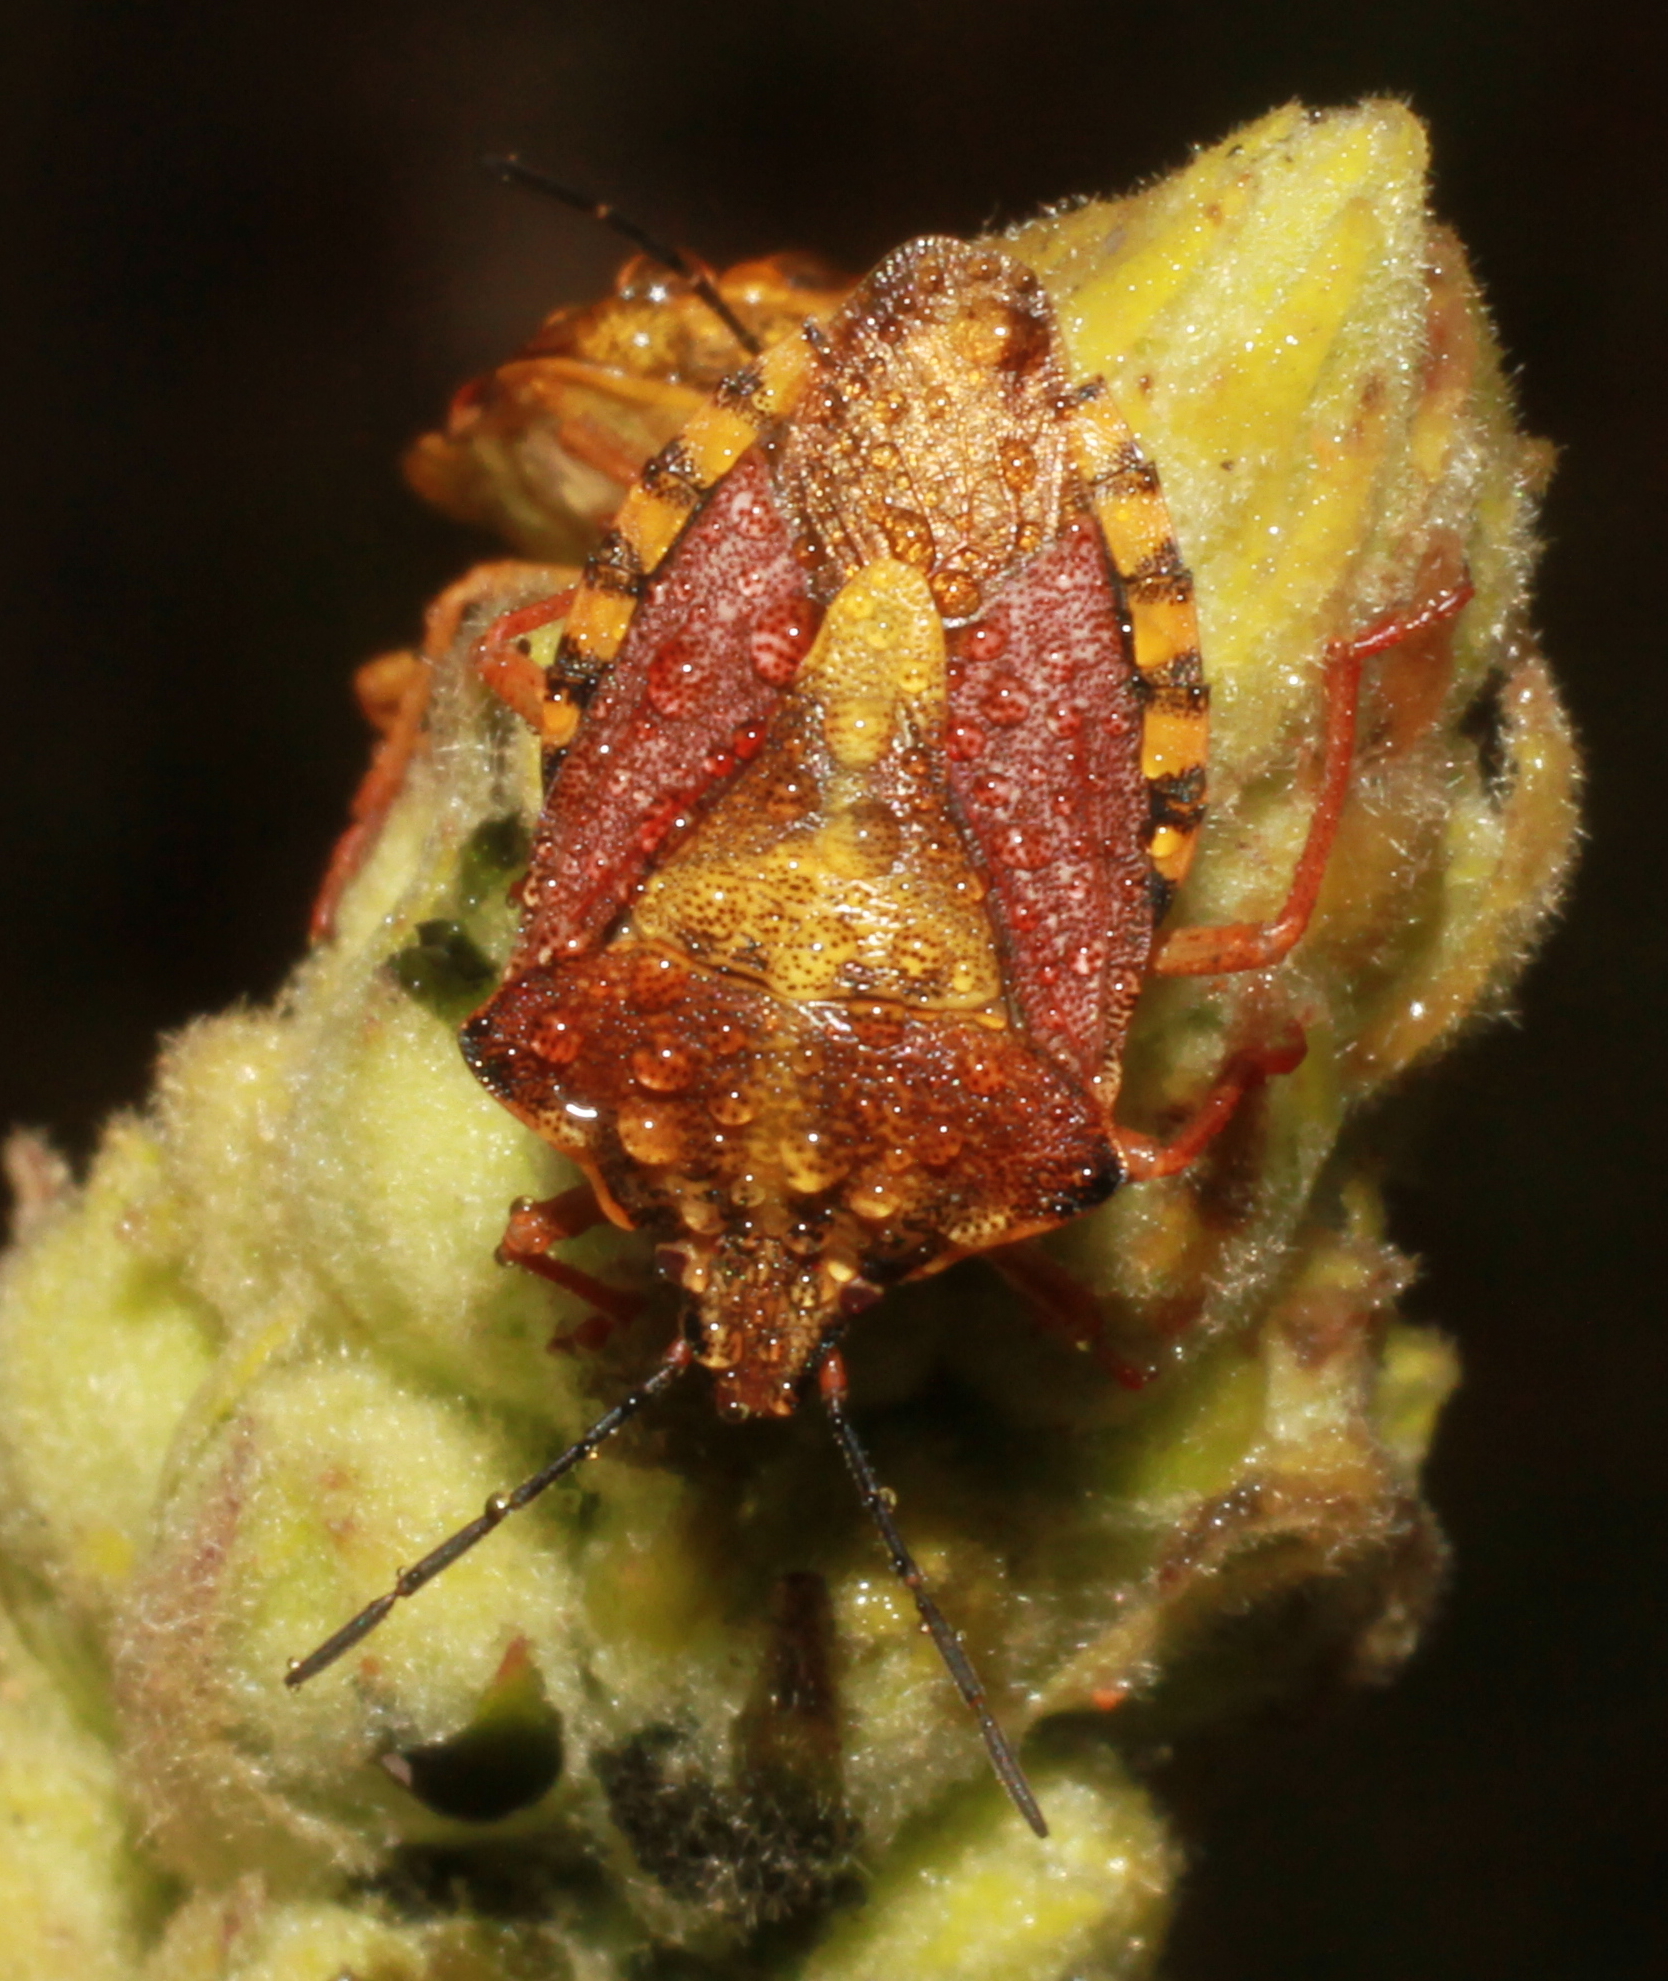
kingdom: Animalia
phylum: Arthropoda
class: Insecta
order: Hemiptera
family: Pentatomidae
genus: Carpocoris
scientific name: Carpocoris purpureipennis
